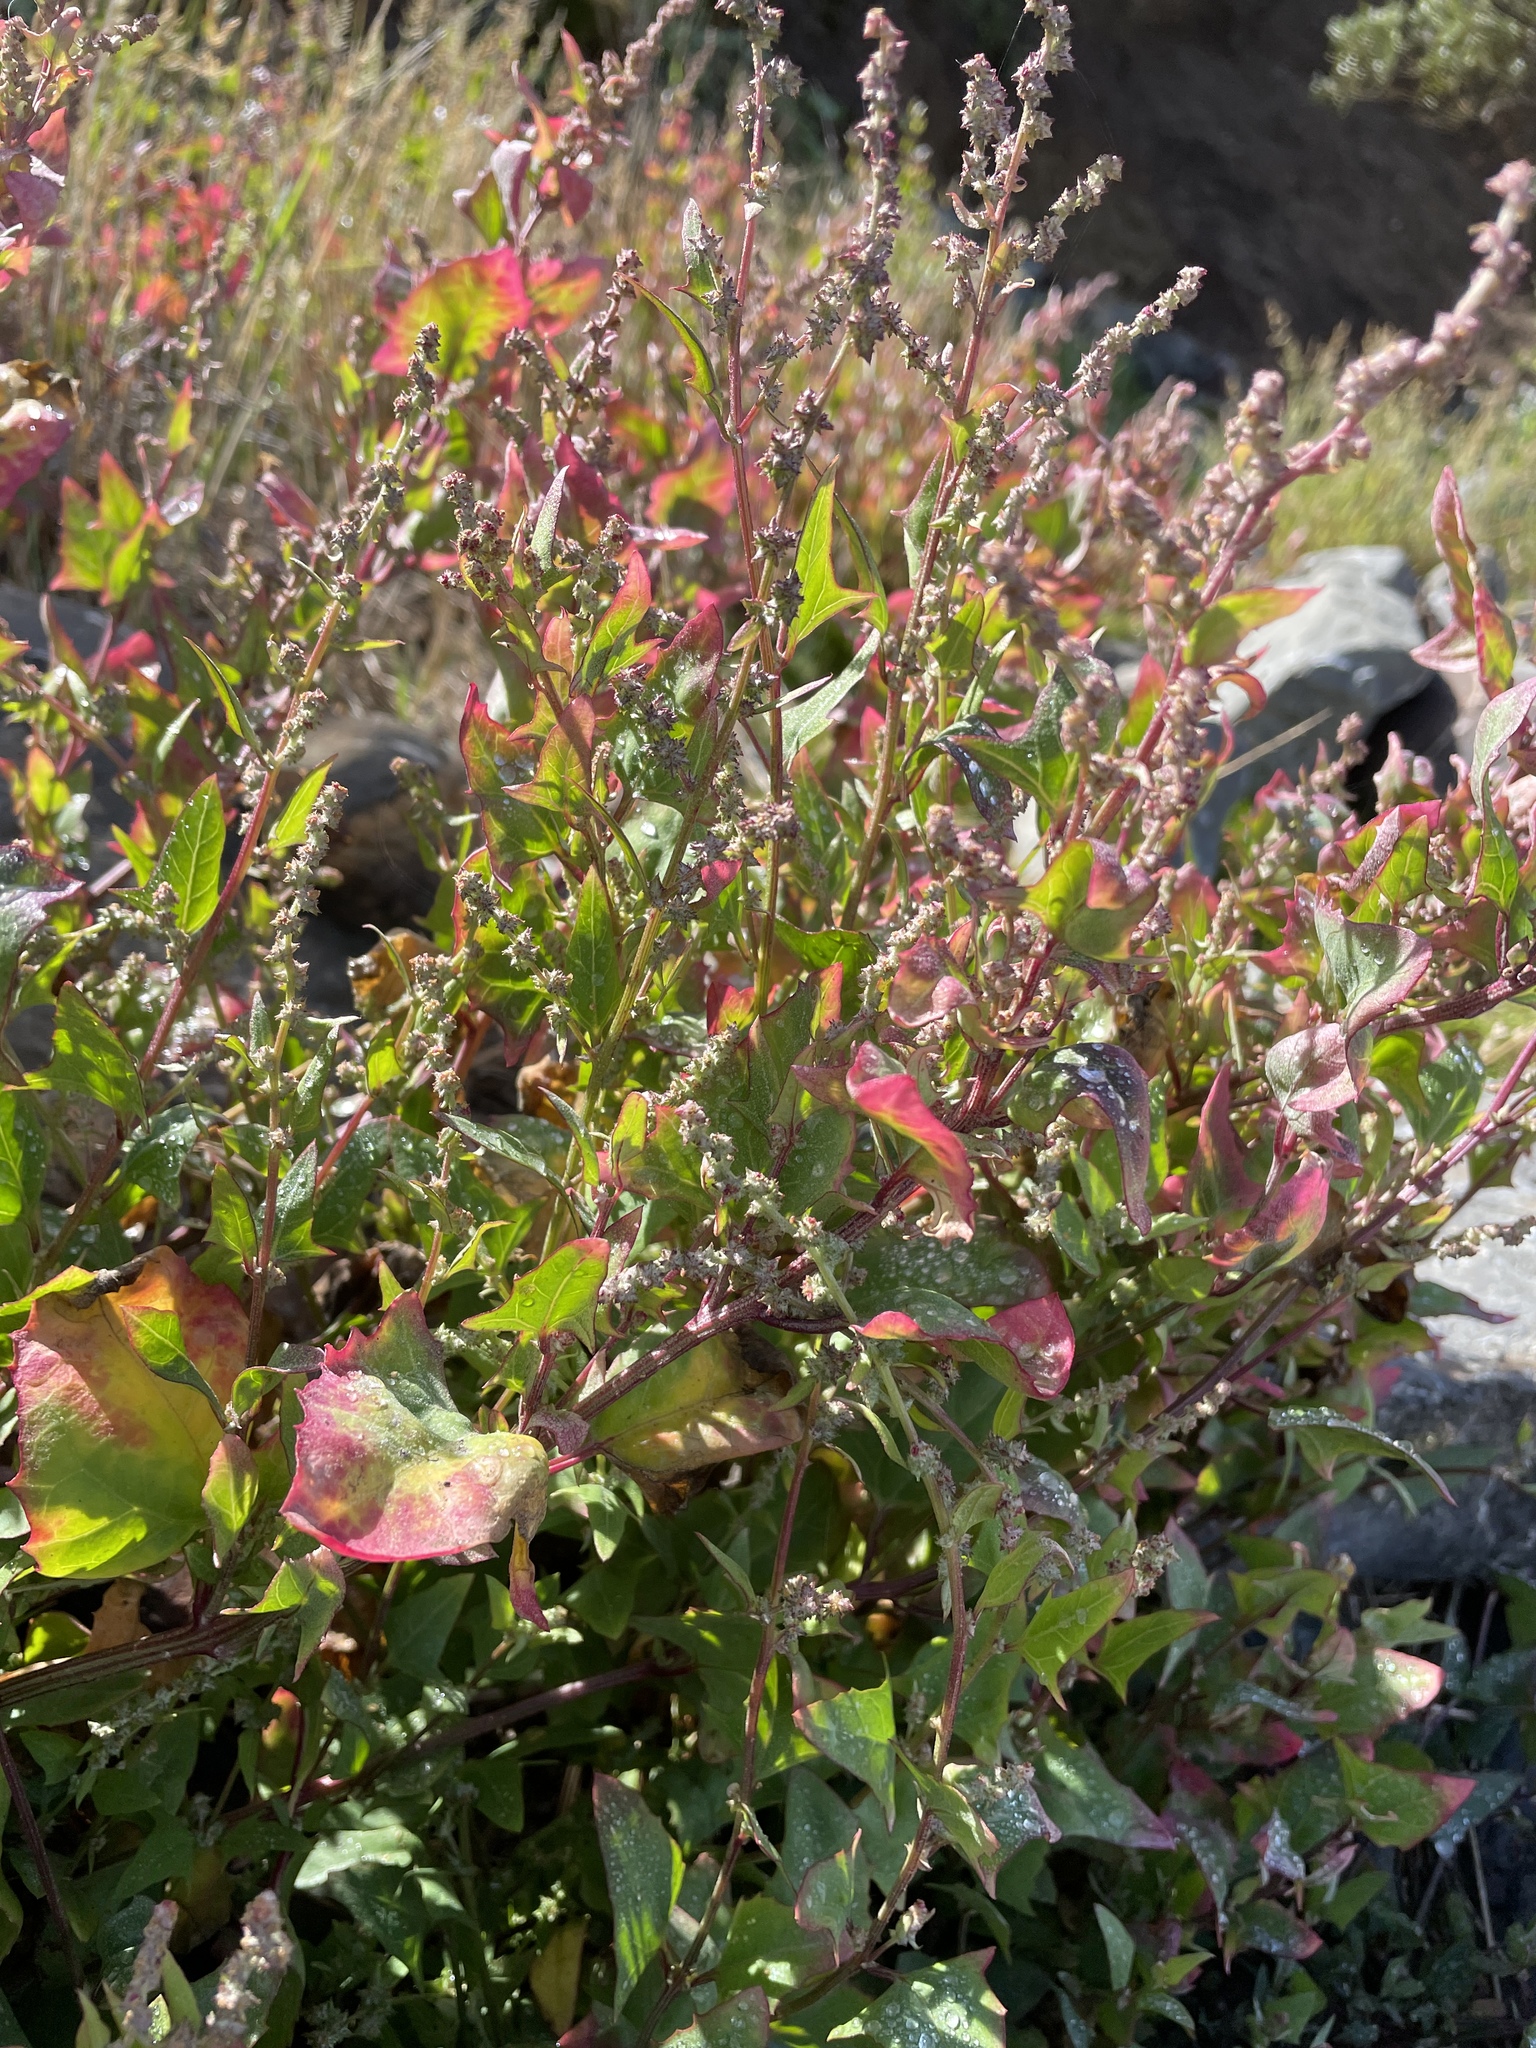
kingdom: Plantae
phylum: Tracheophyta
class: Magnoliopsida
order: Caryophyllales
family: Amaranthaceae
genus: Atriplex
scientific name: Atriplex prostrata
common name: Spear-leaved orache
